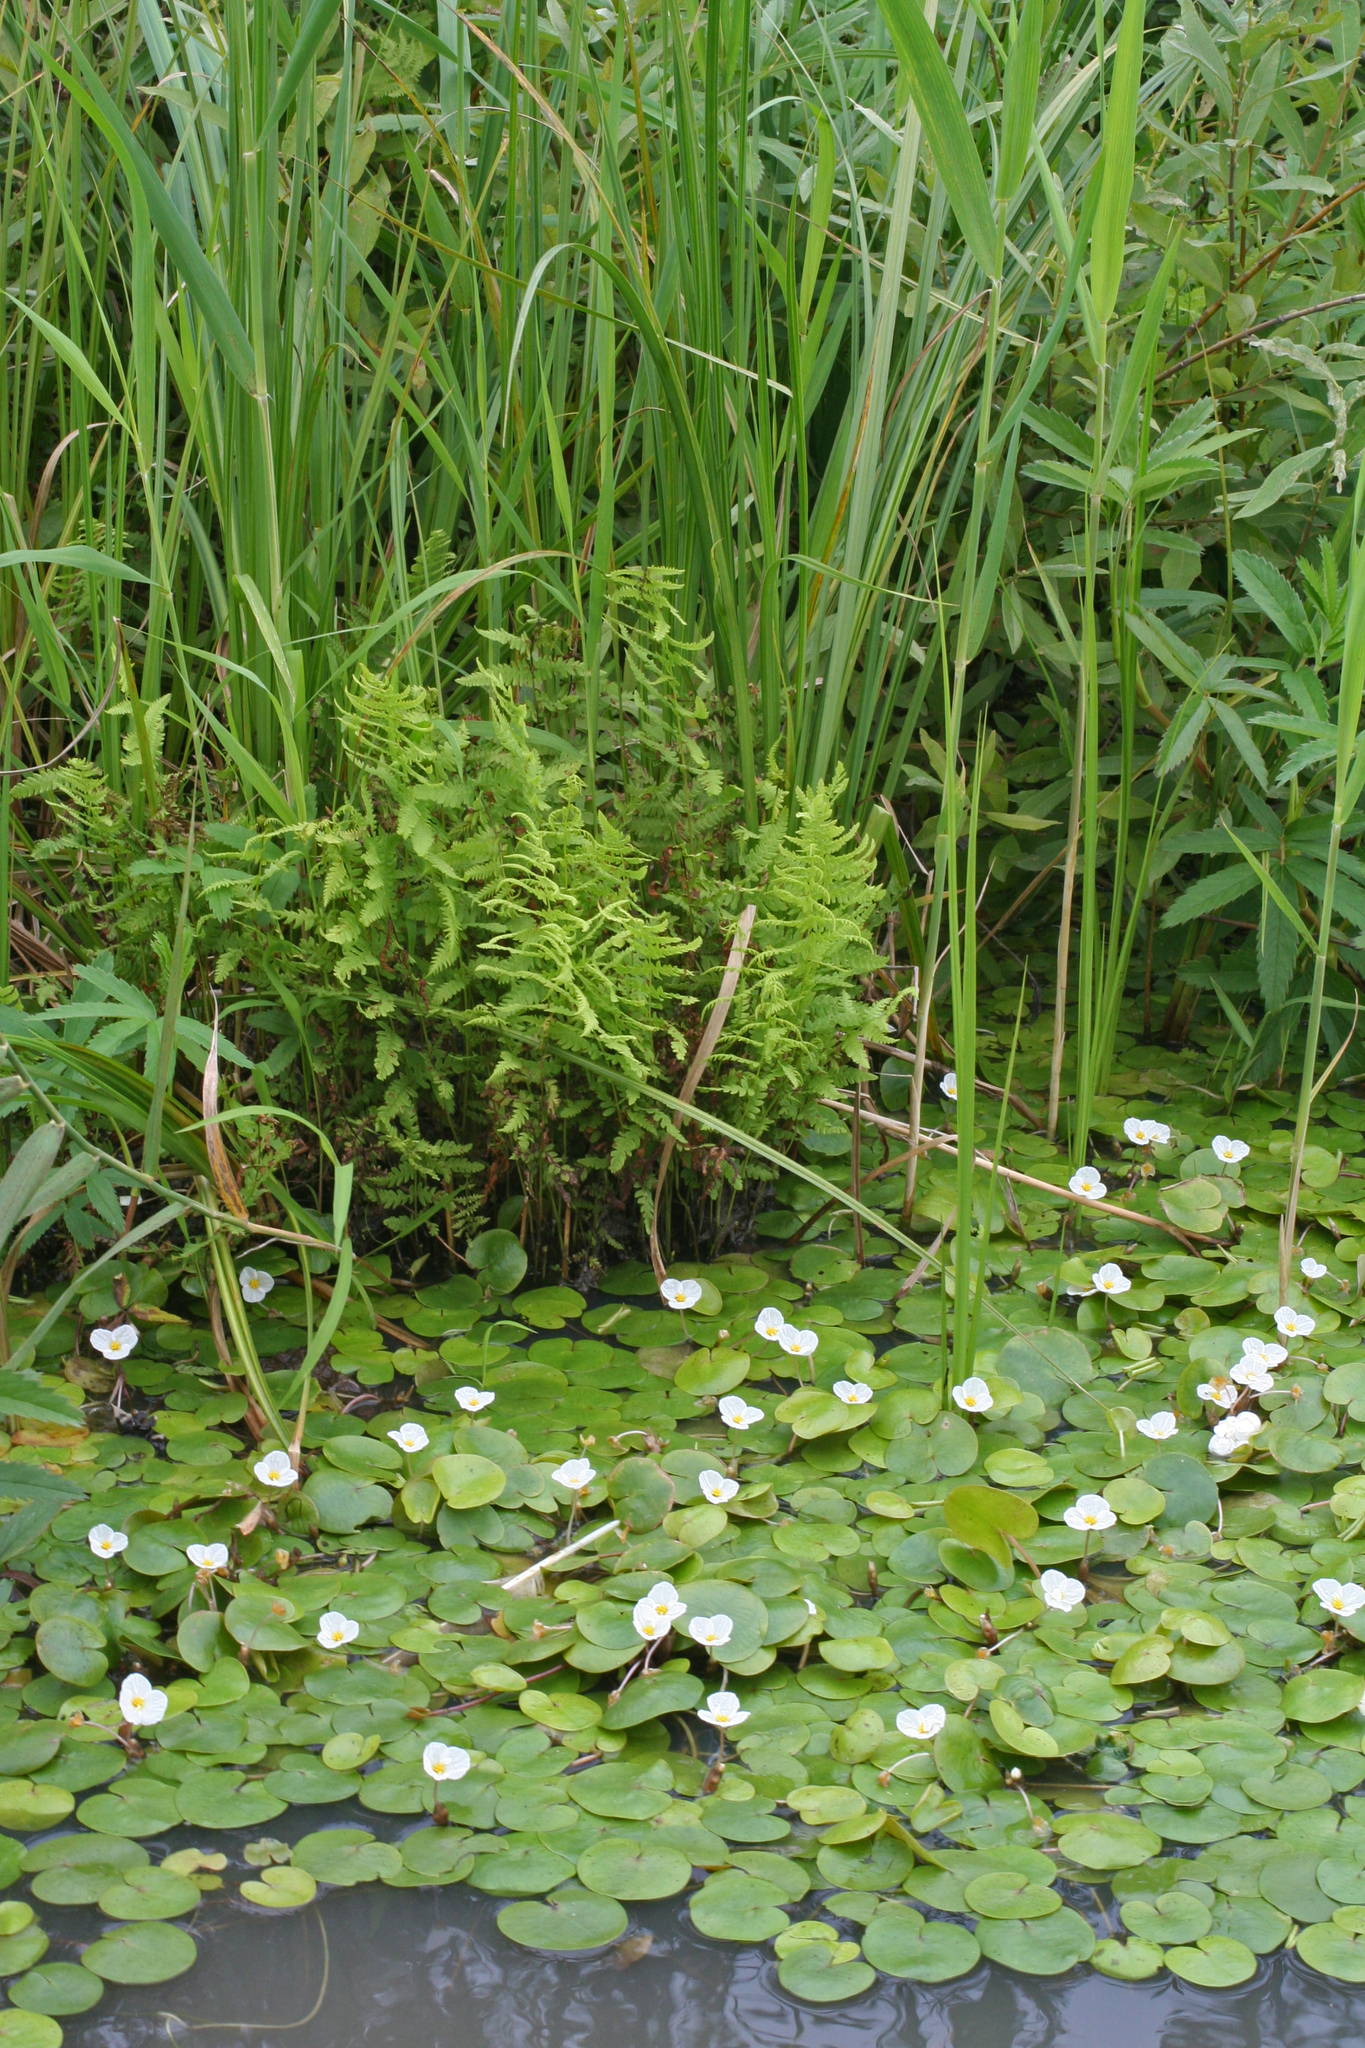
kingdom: Plantae
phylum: Tracheophyta
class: Liliopsida
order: Alismatales
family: Hydrocharitaceae
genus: Hydrocharis
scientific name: Hydrocharis morsus-ranae
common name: Frogbit
